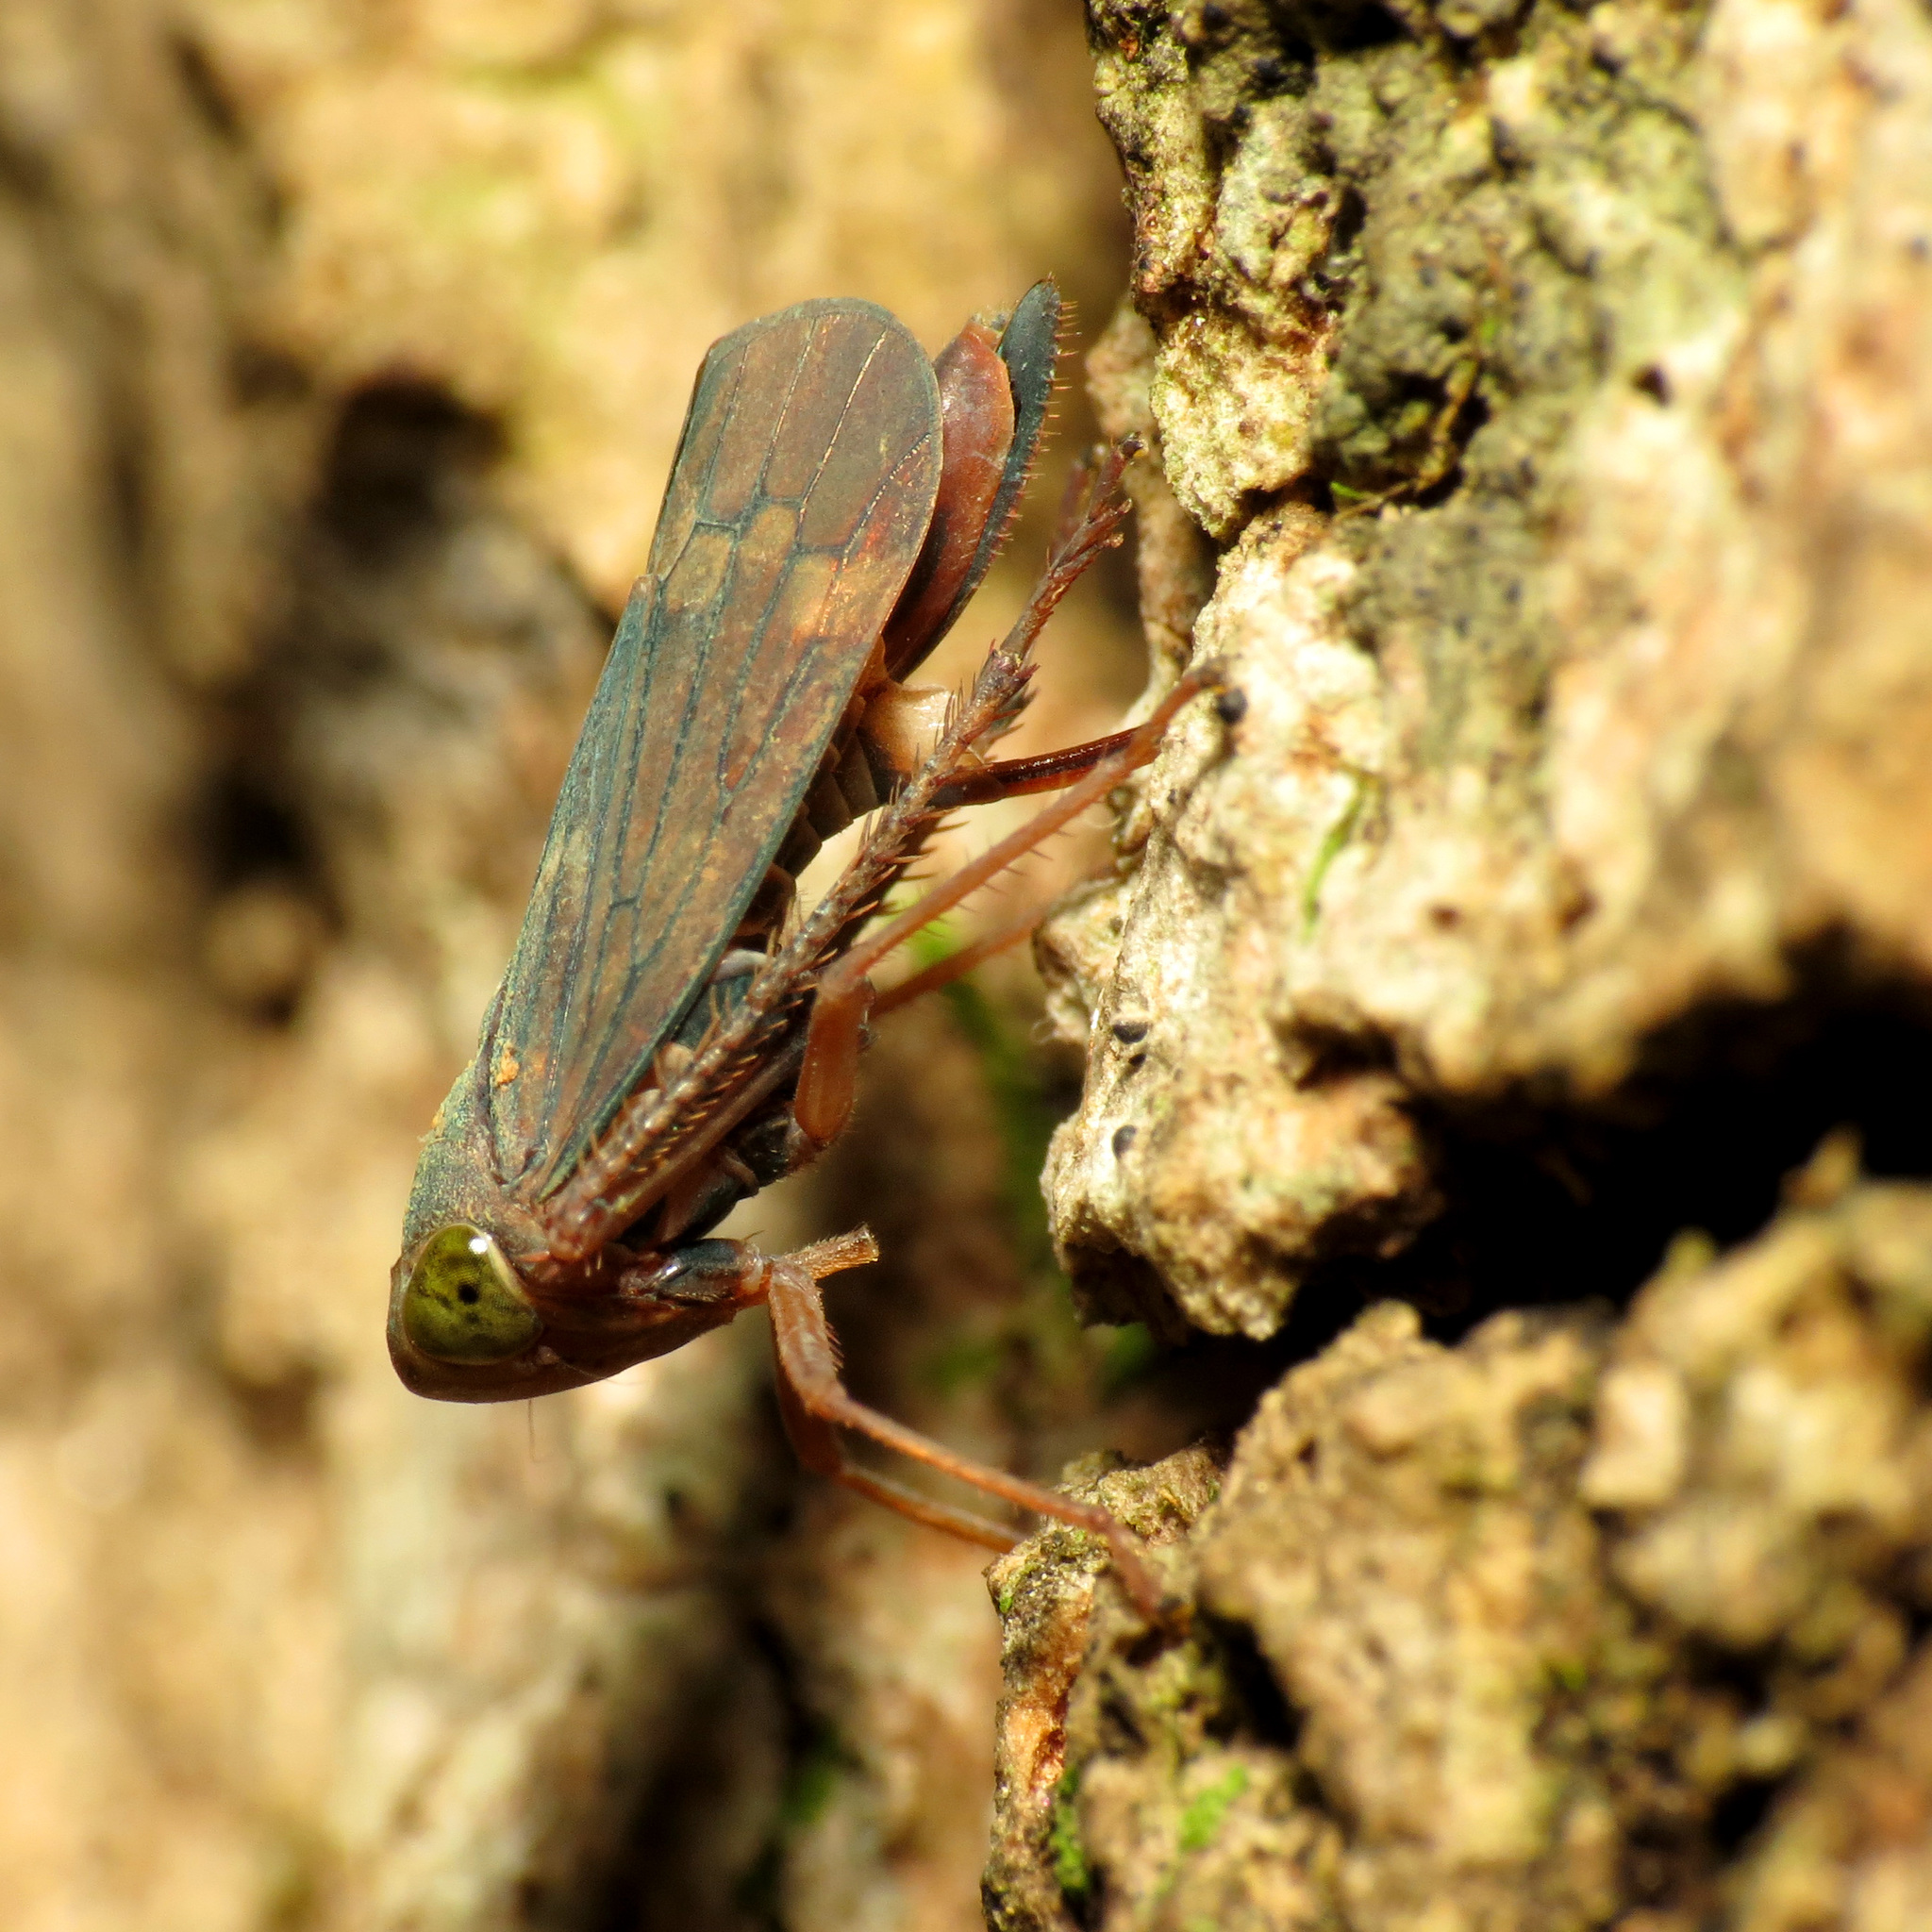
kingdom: Animalia
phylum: Arthropoda
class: Insecta
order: Hemiptera
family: Cicadellidae
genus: Jikradia
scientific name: Jikradia olitoria
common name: Coppery leafhopper
